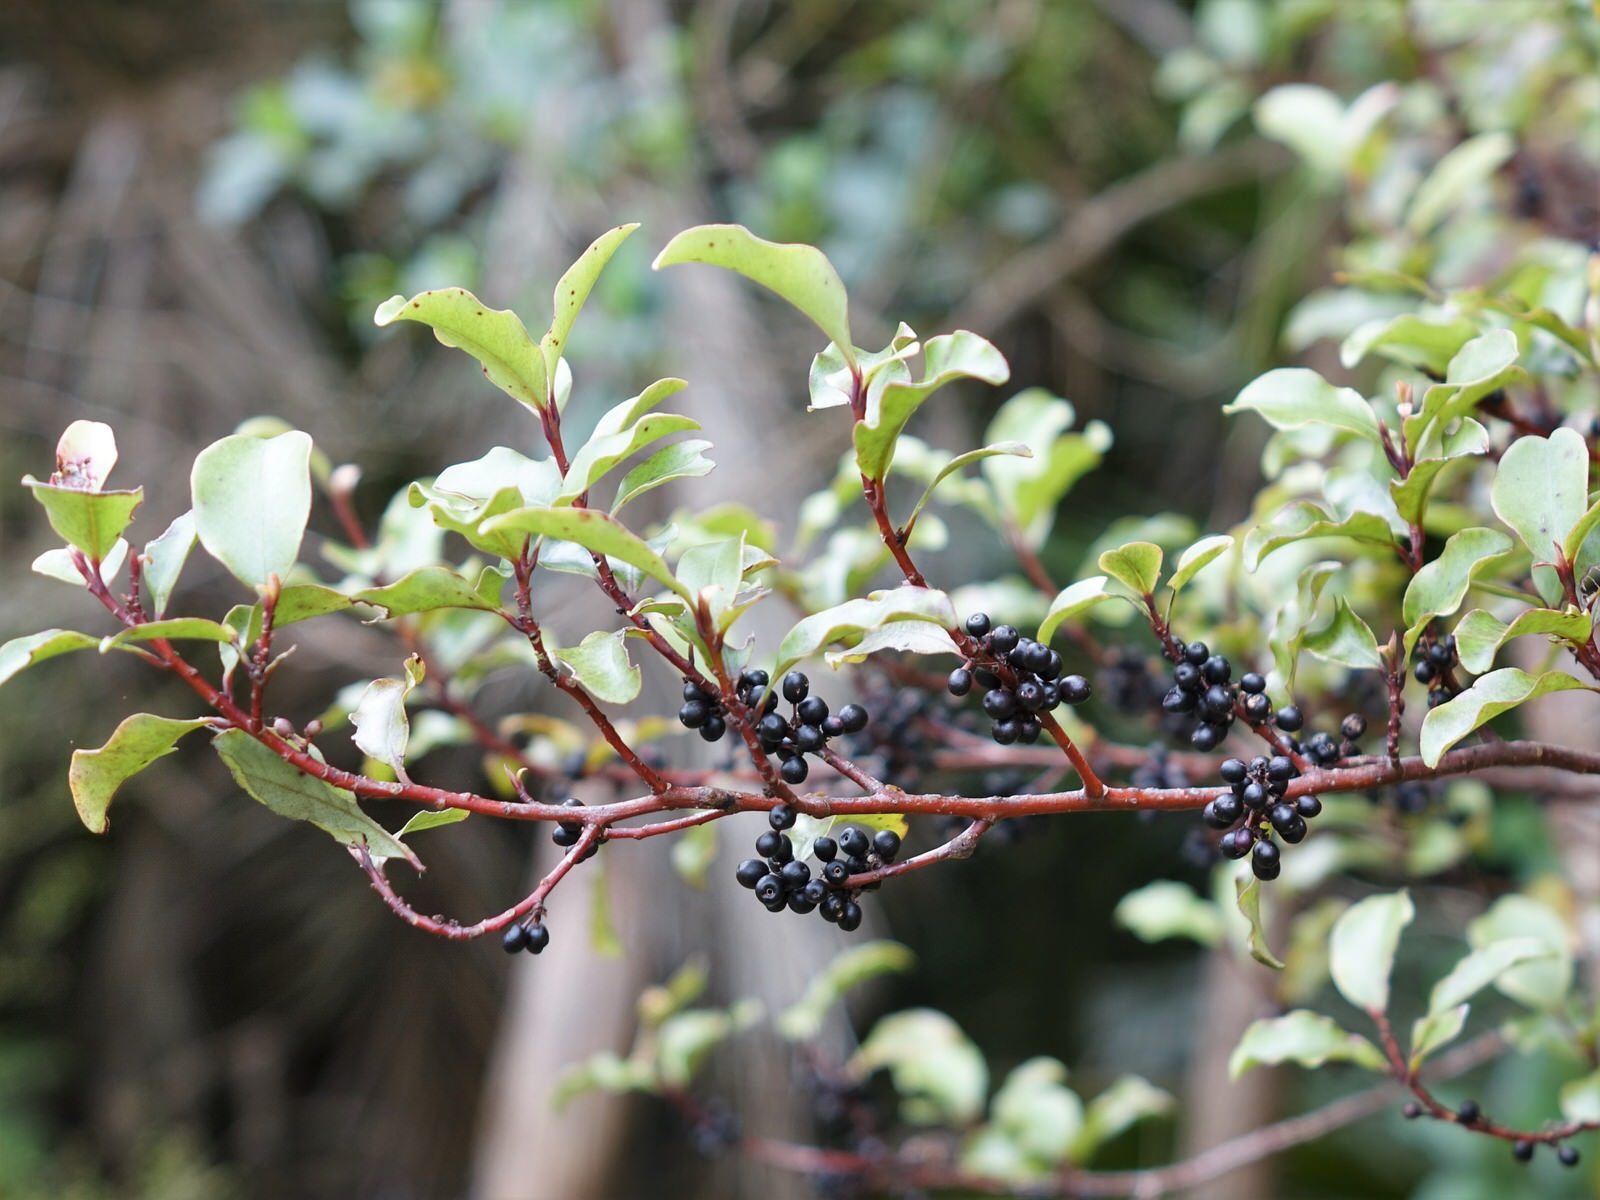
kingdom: Plantae
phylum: Tracheophyta
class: Magnoliopsida
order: Ericales
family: Primulaceae
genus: Myrsine
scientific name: Myrsine australis
